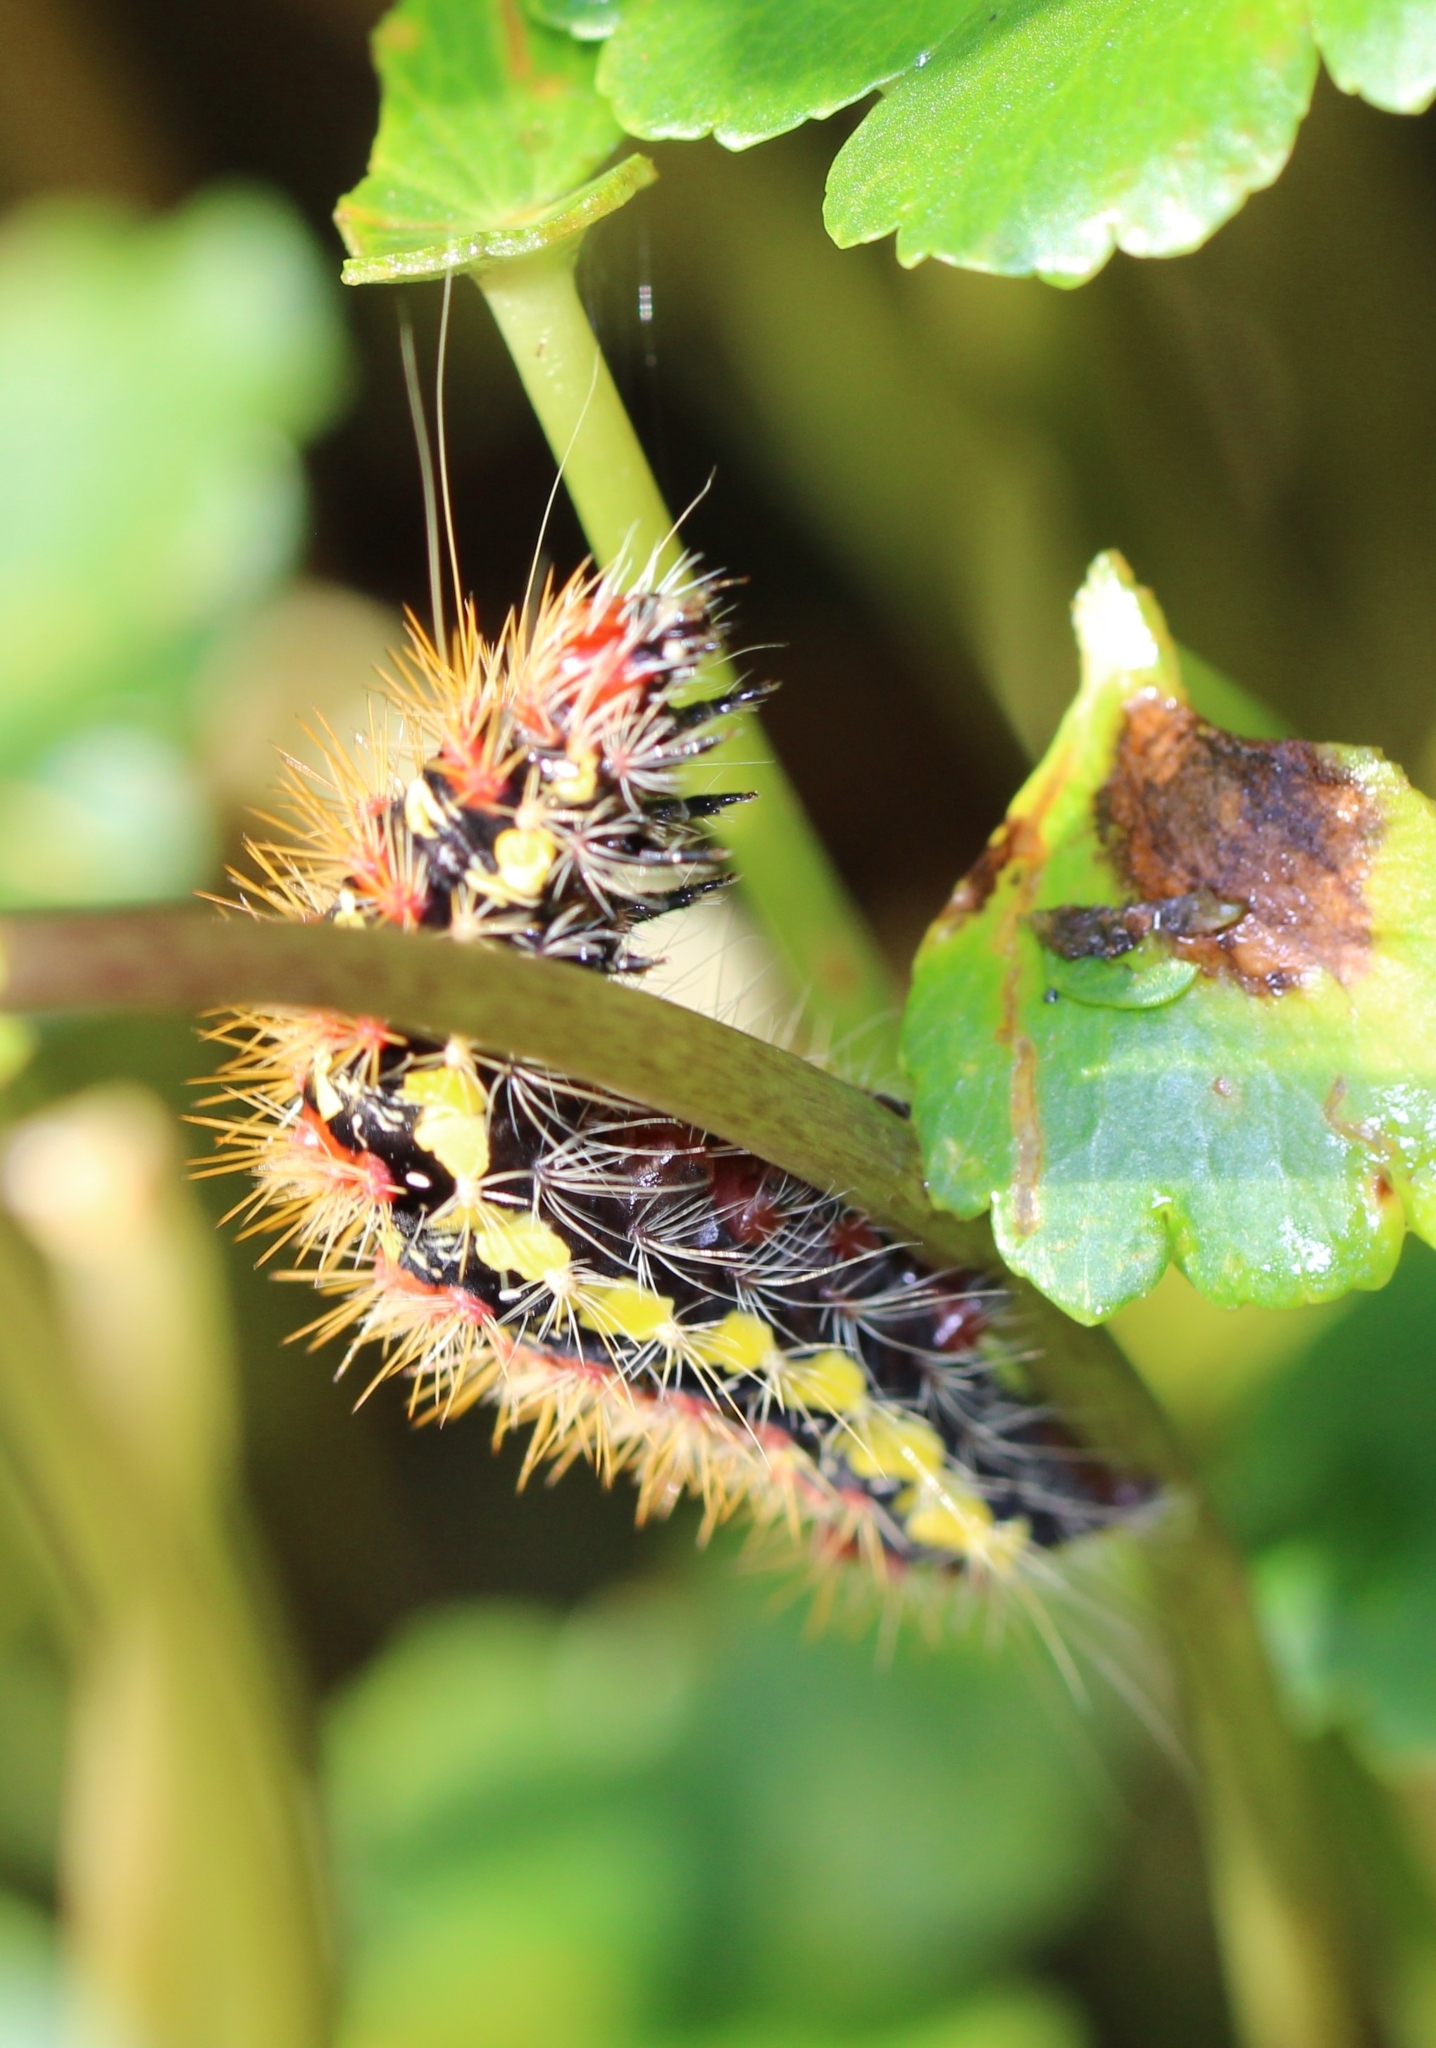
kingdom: Animalia
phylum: Arthropoda
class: Insecta
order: Lepidoptera
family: Noctuidae
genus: Acronicta
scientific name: Acronicta oblinita
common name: Smeared dagger
